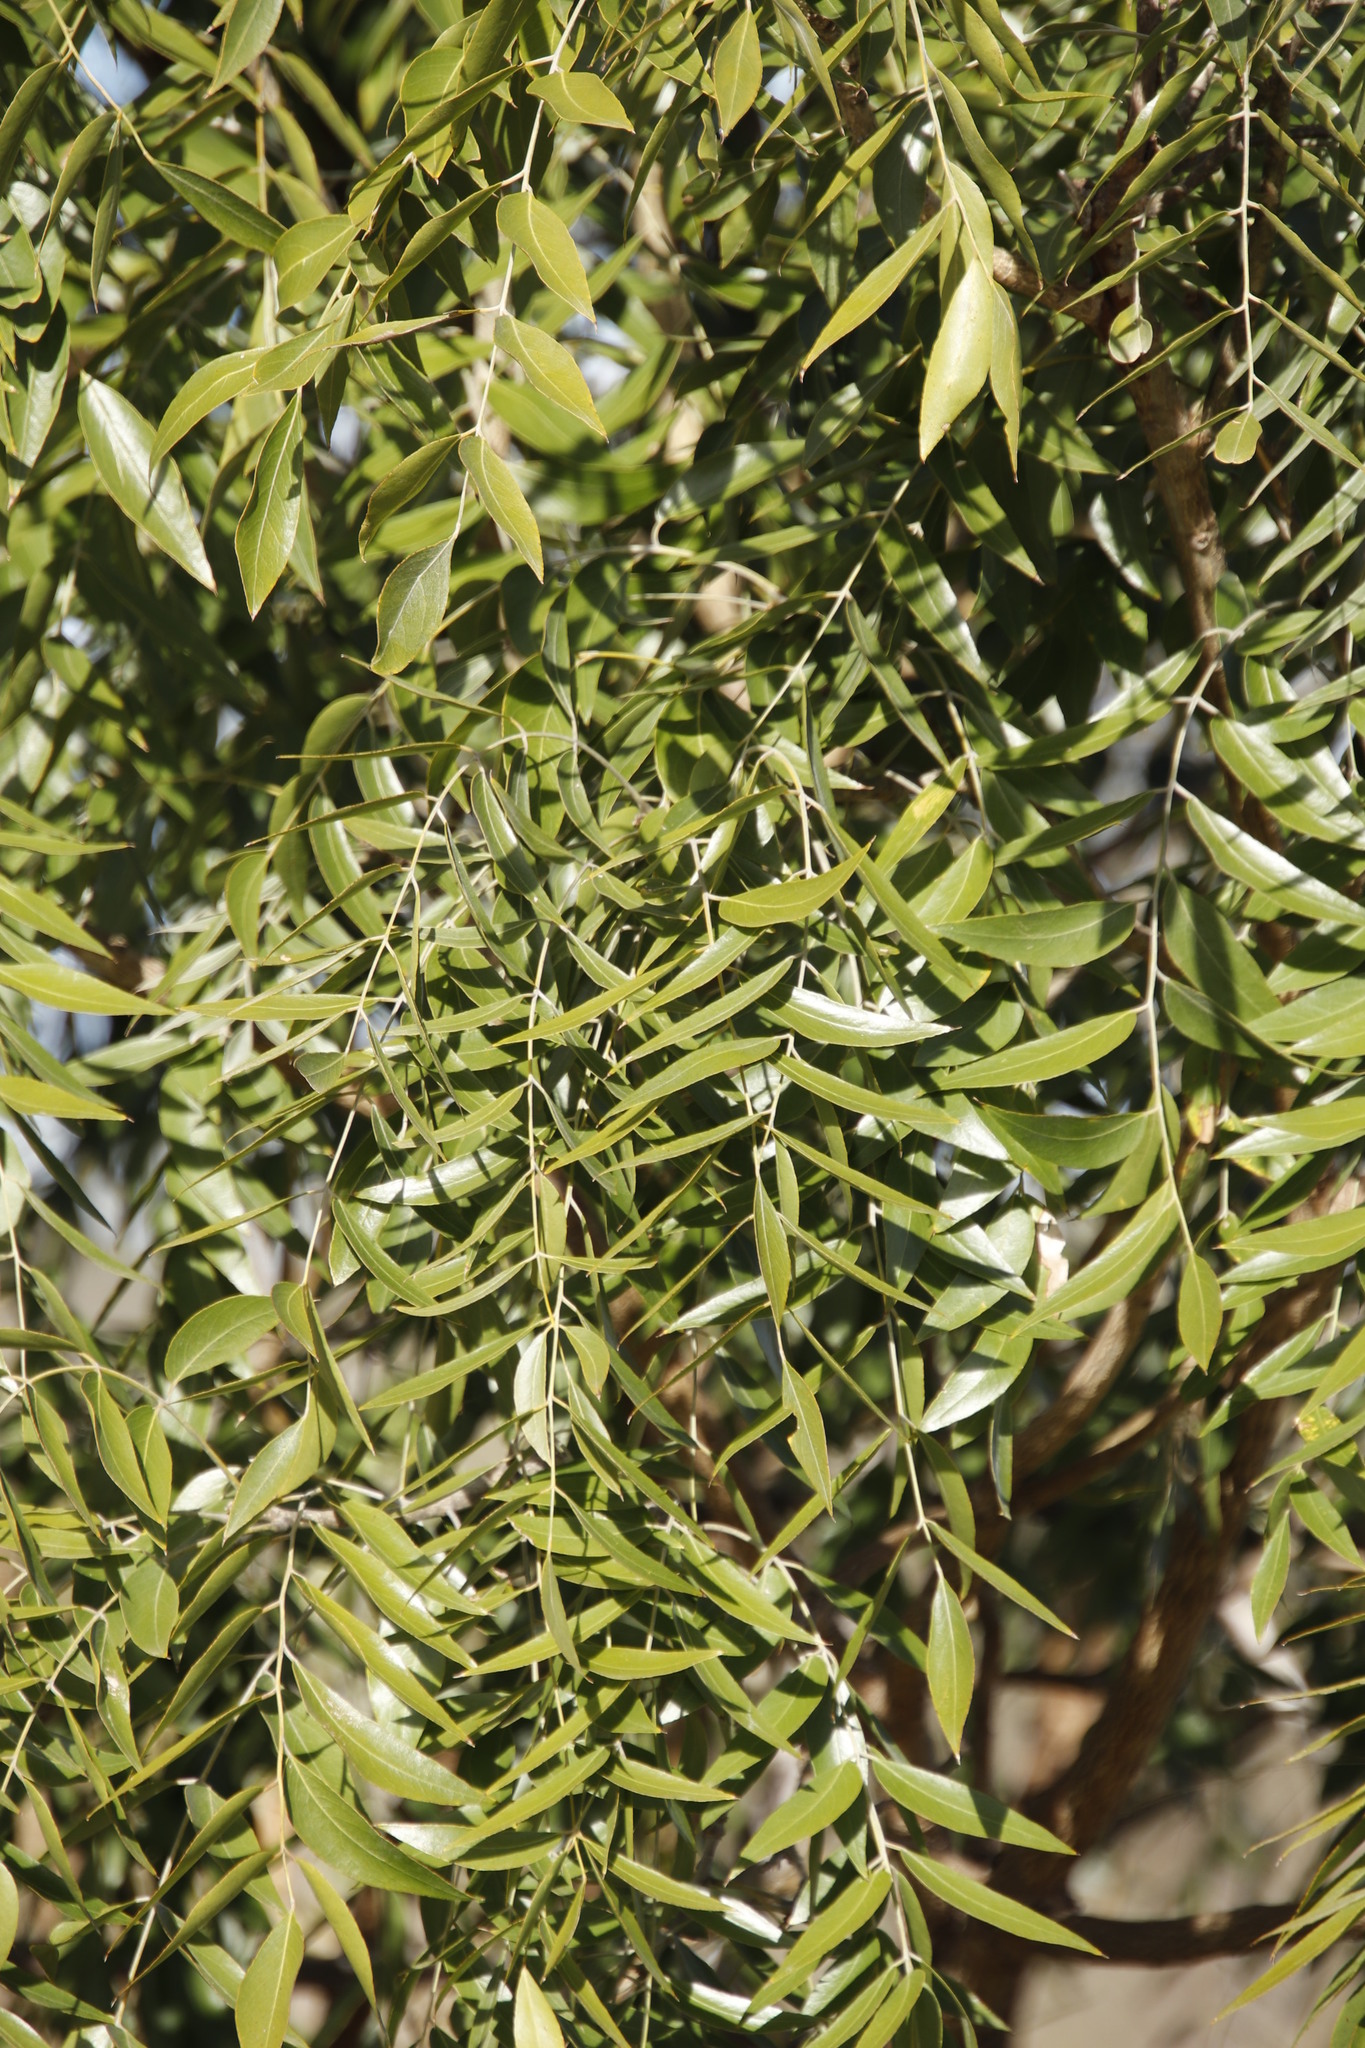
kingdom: Plantae
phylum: Tracheophyta
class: Magnoliopsida
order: Fabales
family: Fabaceae
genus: Bolusanthus
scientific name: Bolusanthus speciosus
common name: Tree wisteria
